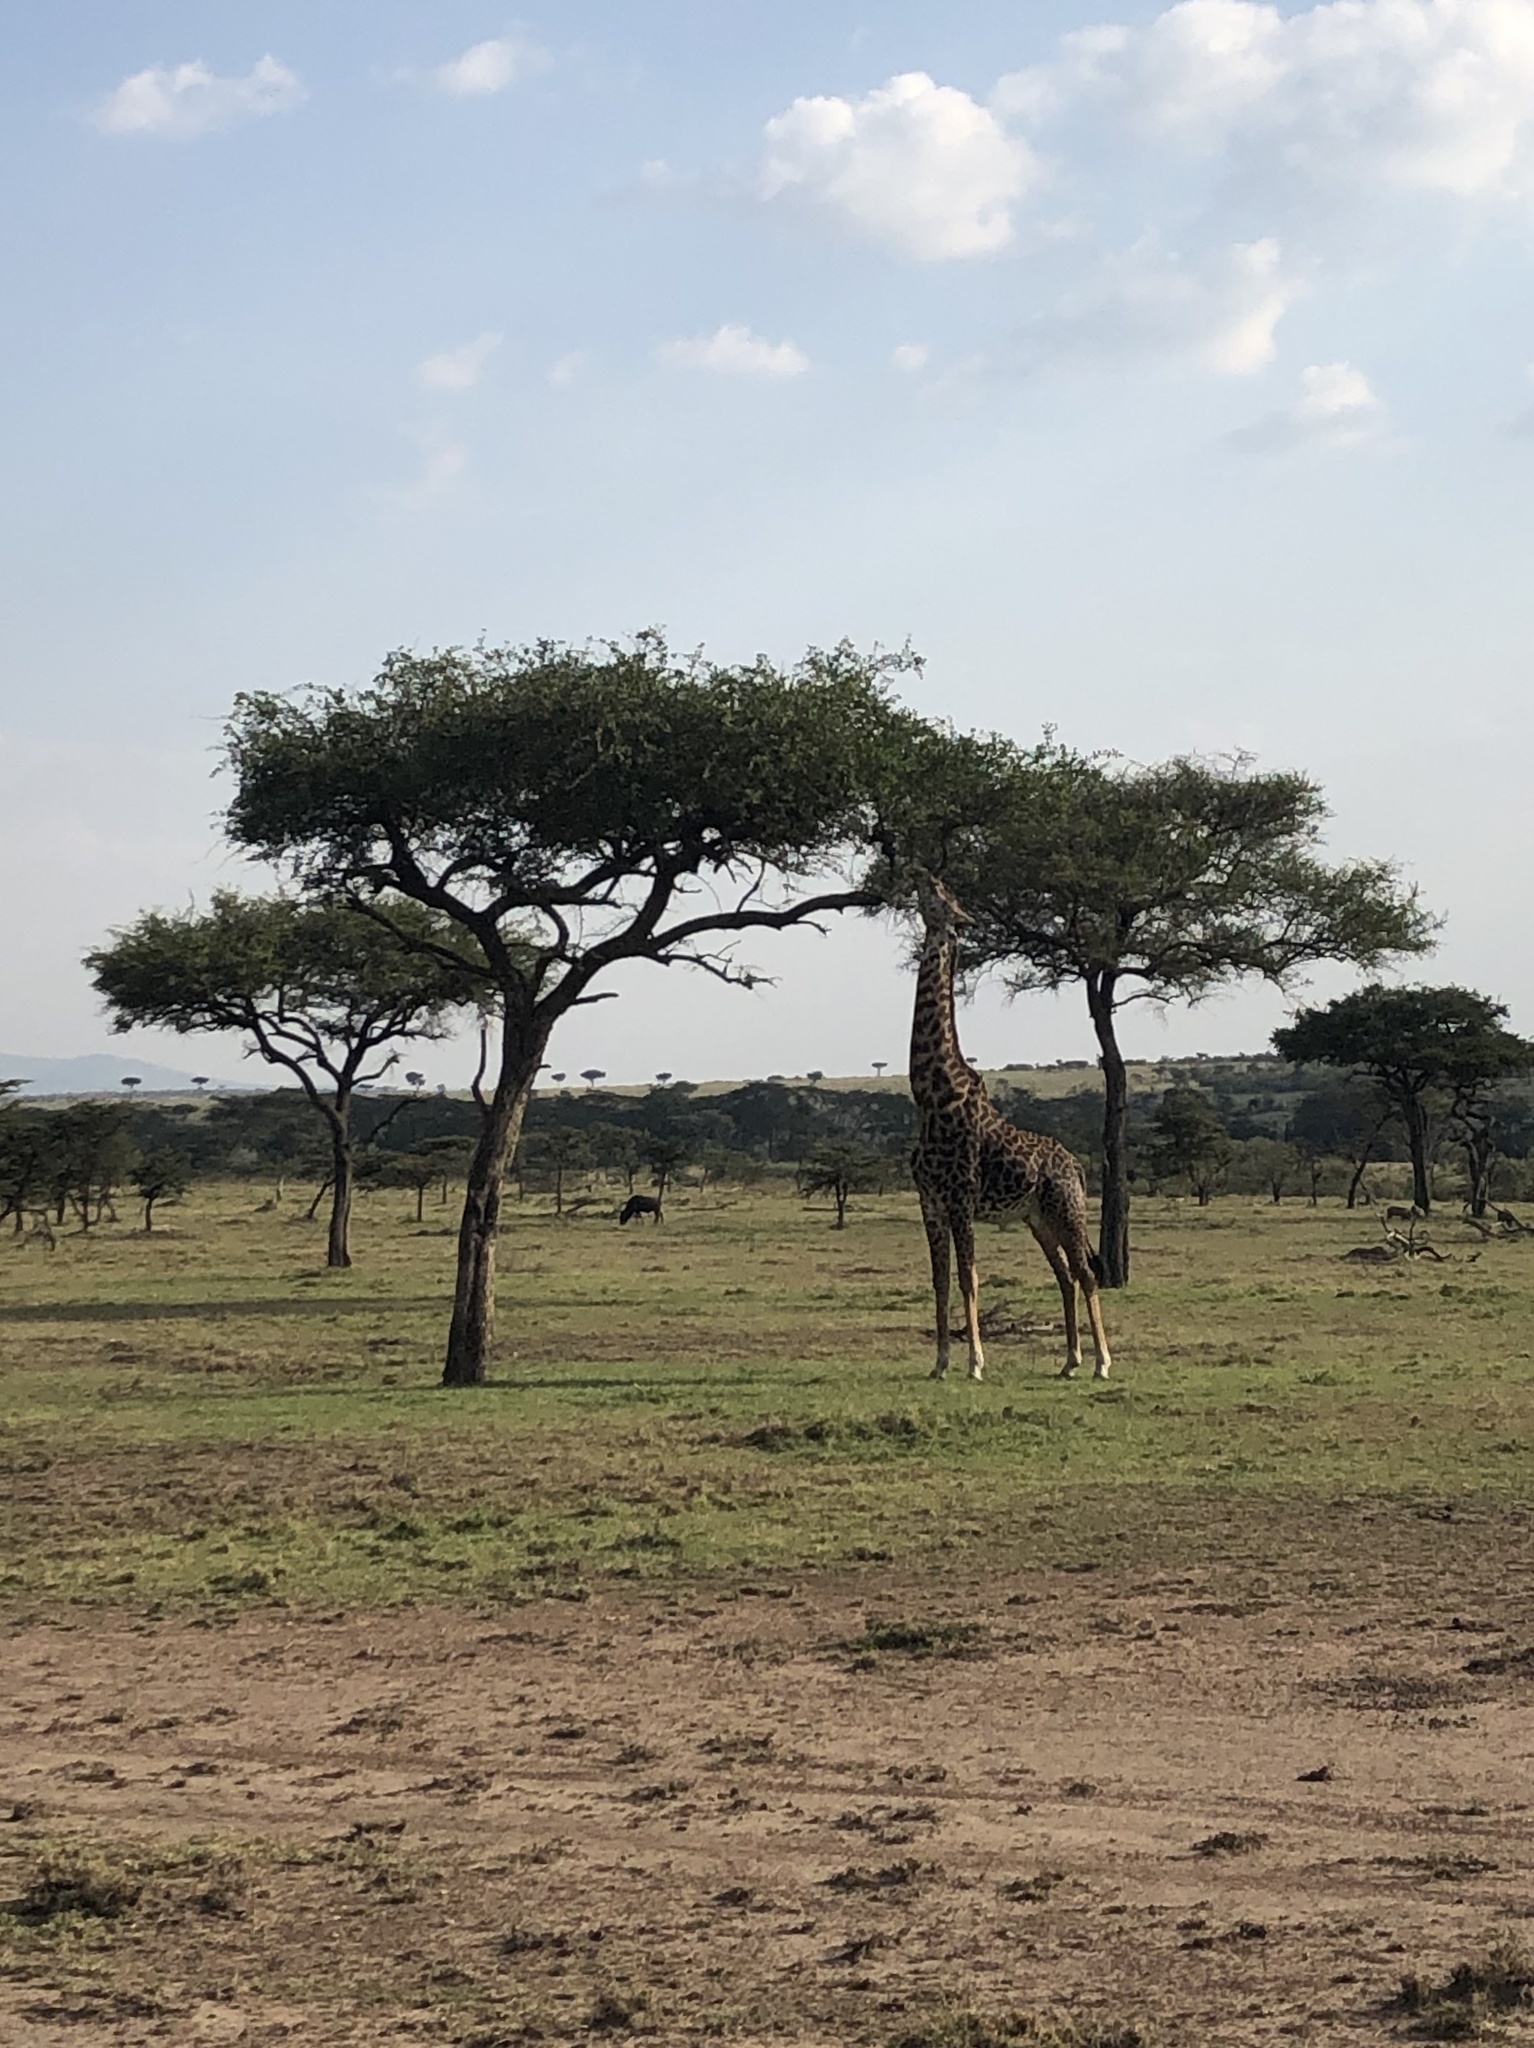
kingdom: Animalia
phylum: Chordata
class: Mammalia
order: Artiodactyla
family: Giraffidae
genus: Giraffa
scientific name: Giraffa tippelskirchi
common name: Masai giraffe
